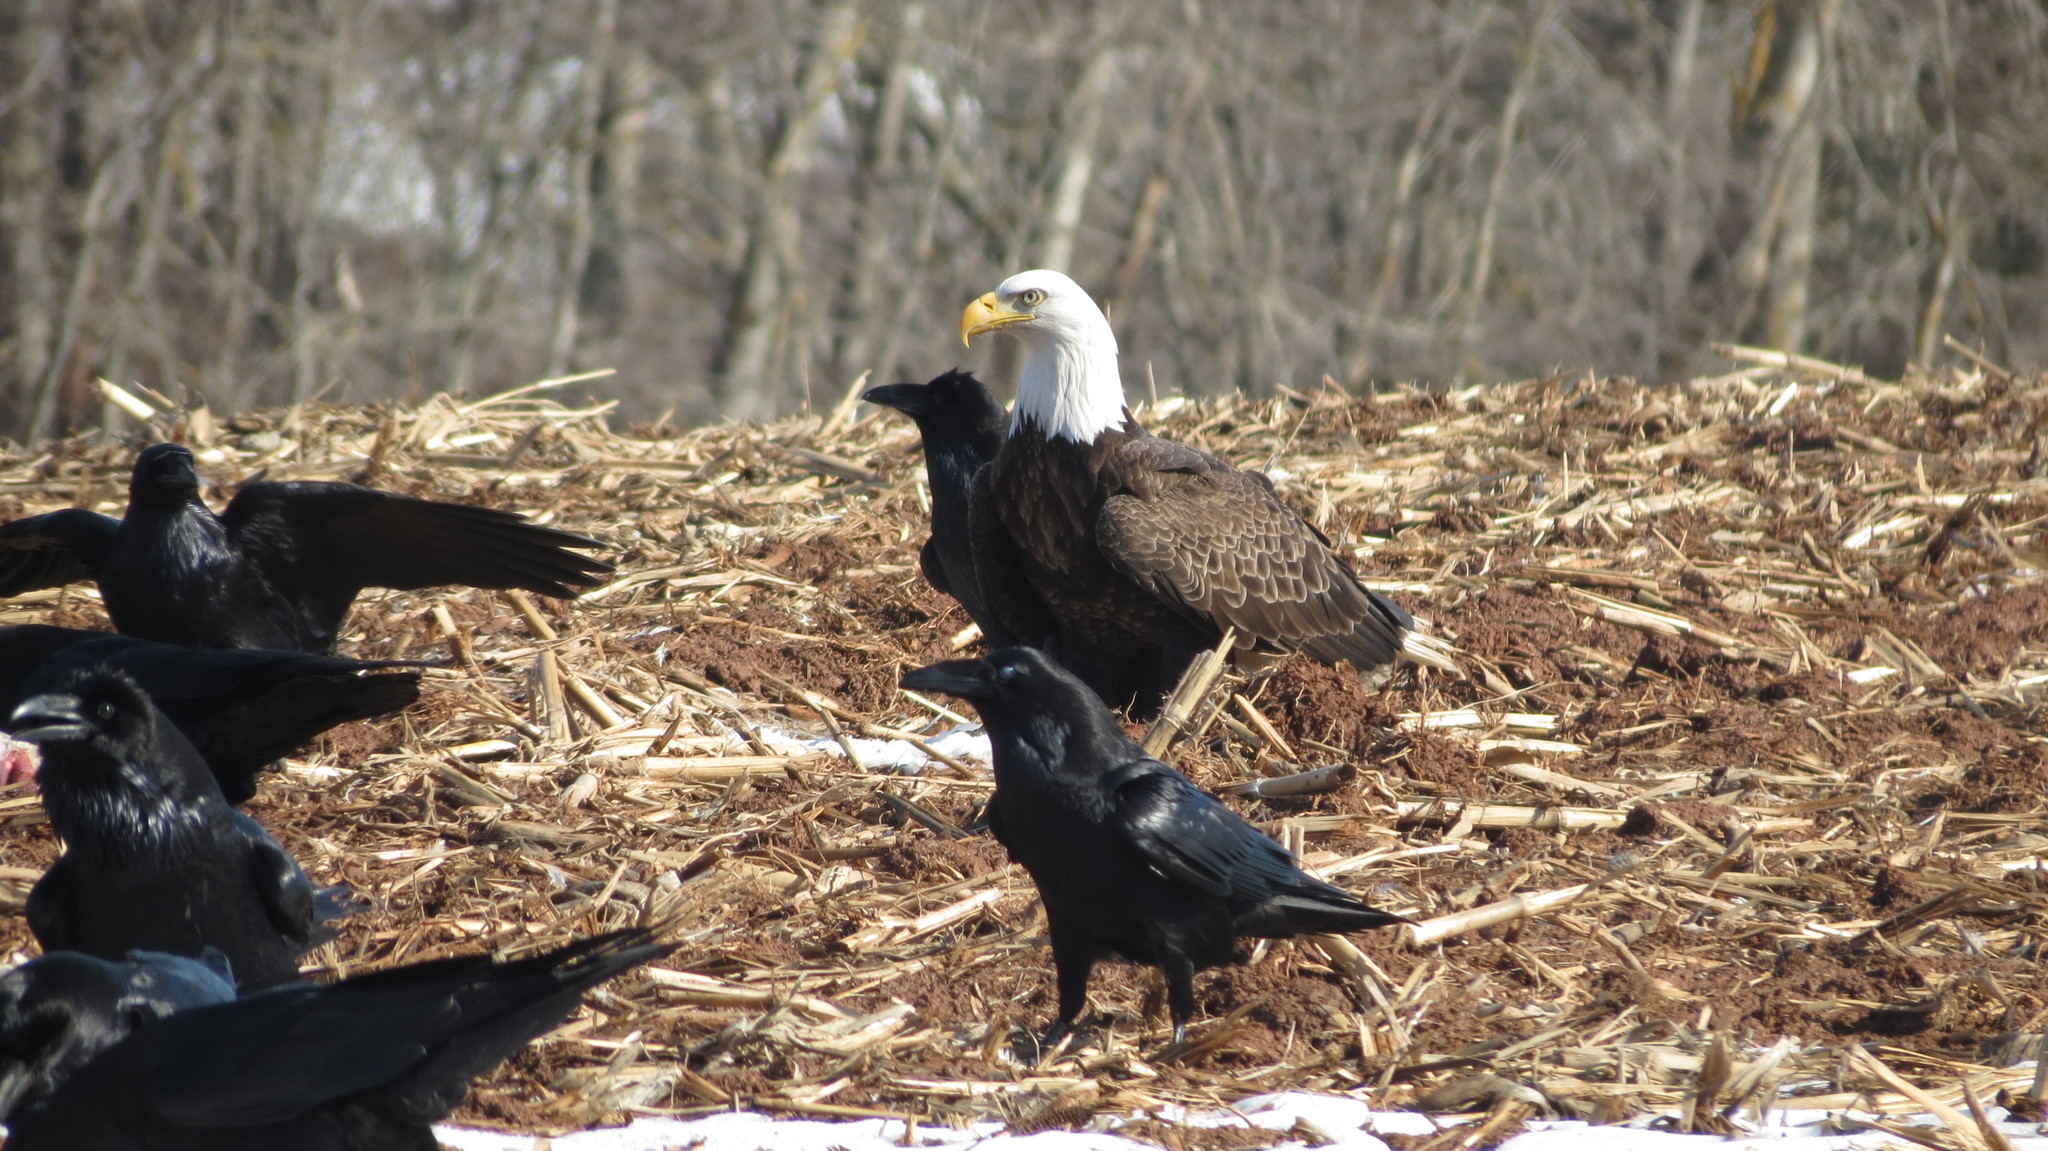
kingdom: Animalia
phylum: Chordata
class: Aves
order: Accipitriformes
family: Accipitridae
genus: Haliaeetus
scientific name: Haliaeetus leucocephalus
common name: Bald eagle
